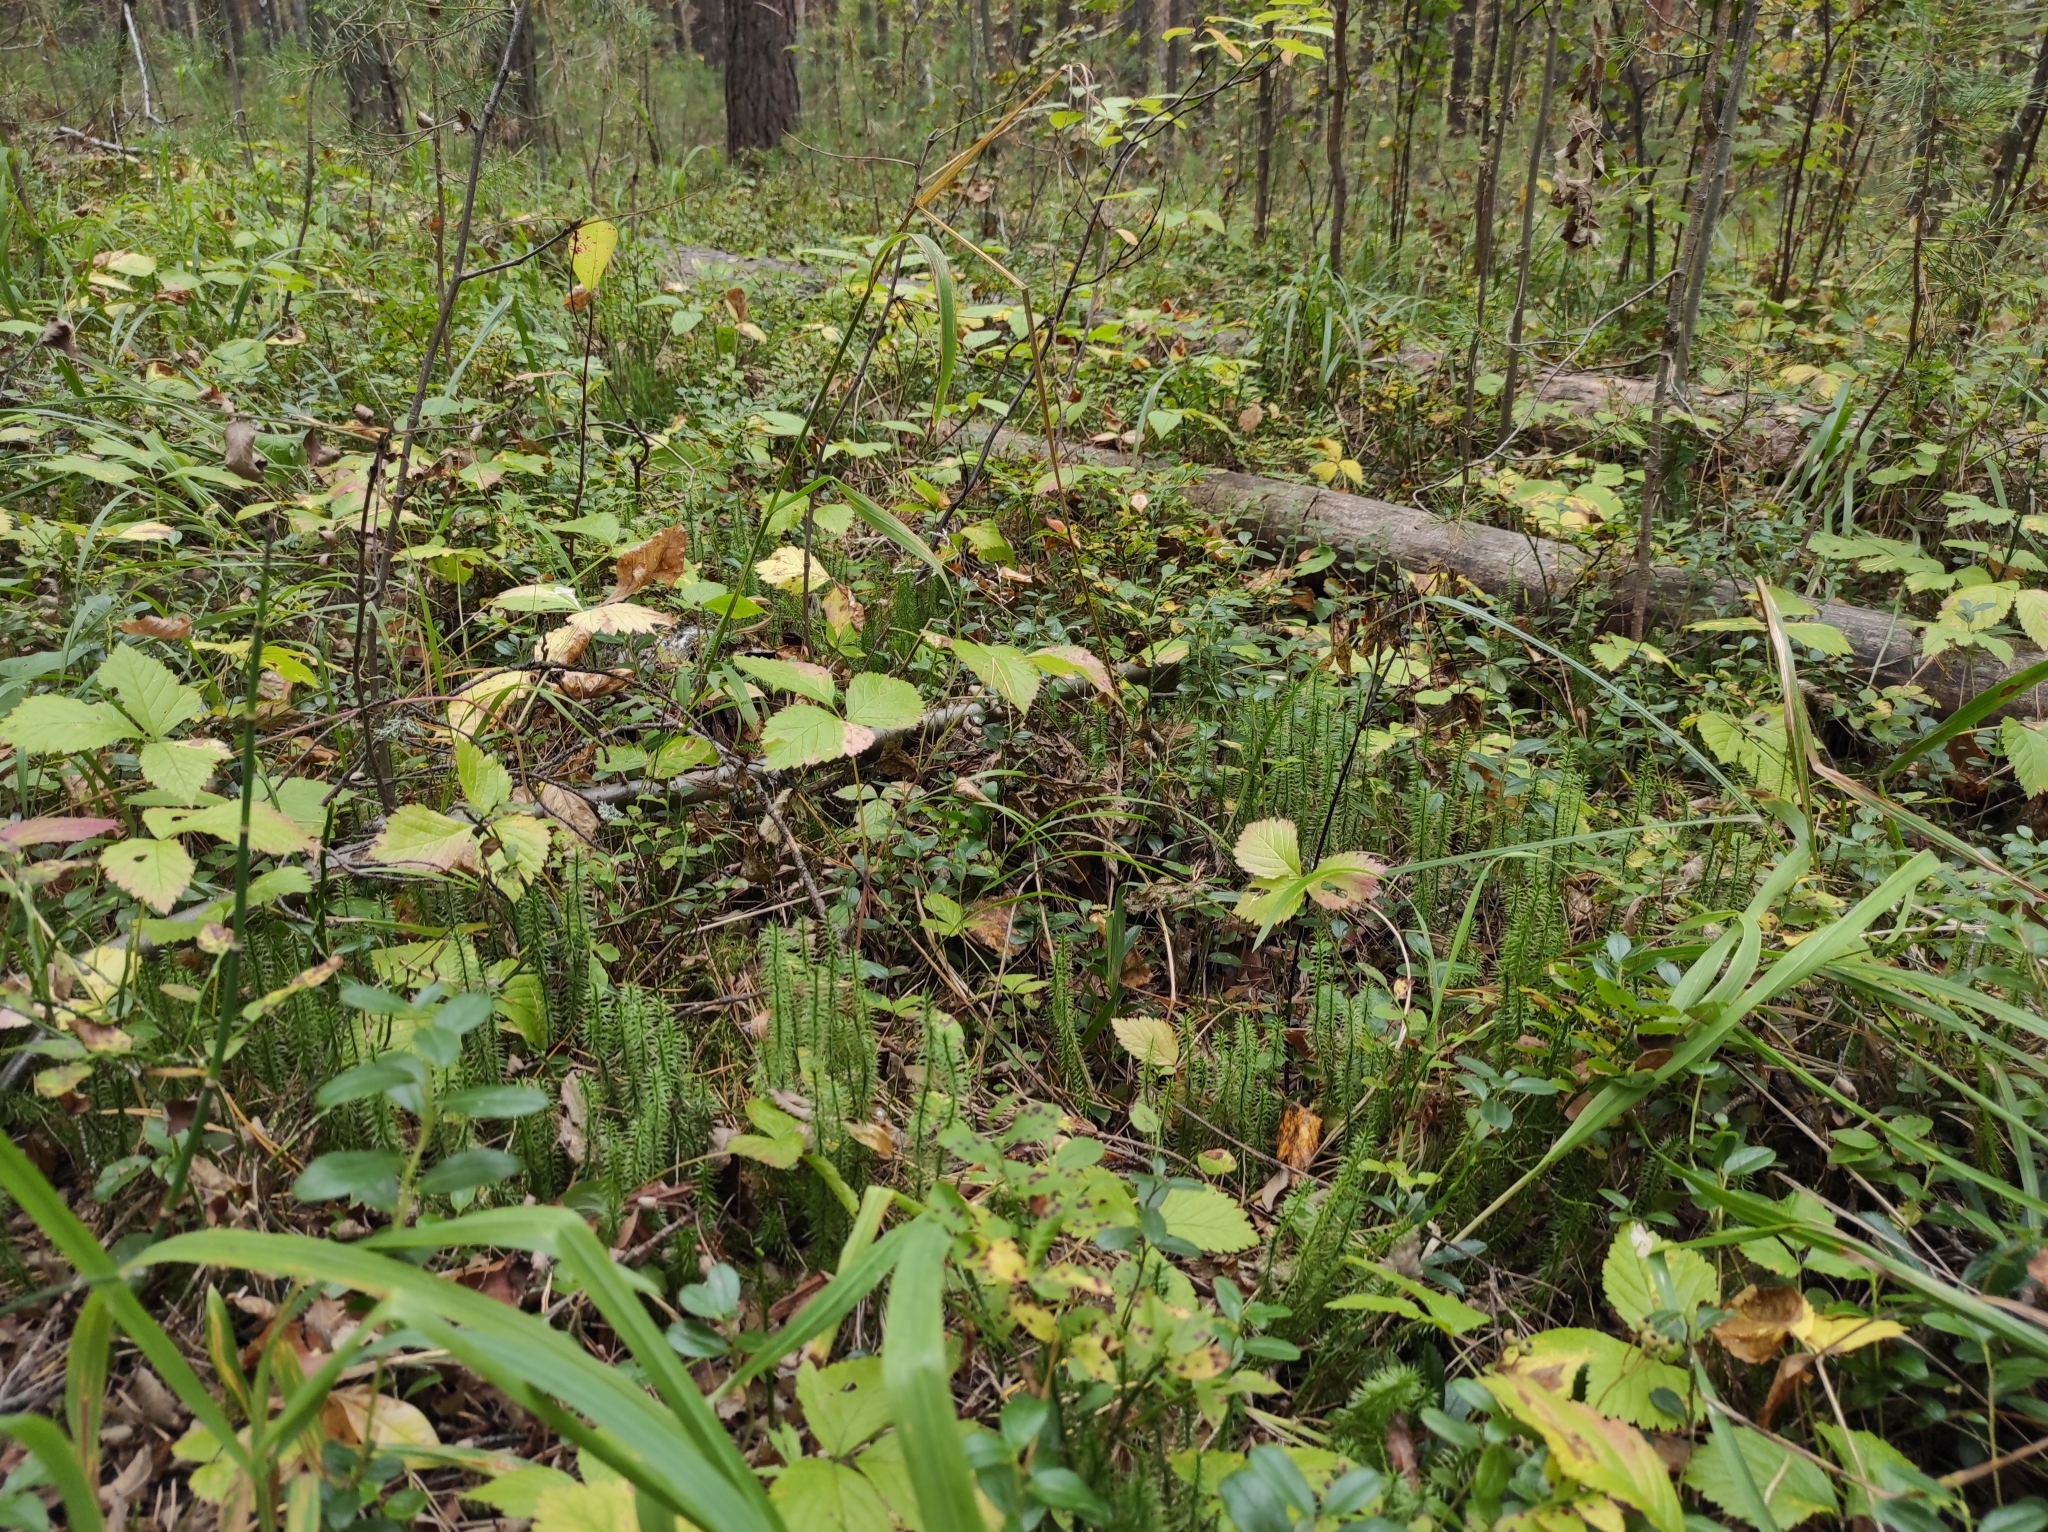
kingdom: Plantae
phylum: Tracheophyta
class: Lycopodiopsida
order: Lycopodiales
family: Lycopodiaceae
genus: Spinulum
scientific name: Spinulum annotinum
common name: Interrupted club-moss
